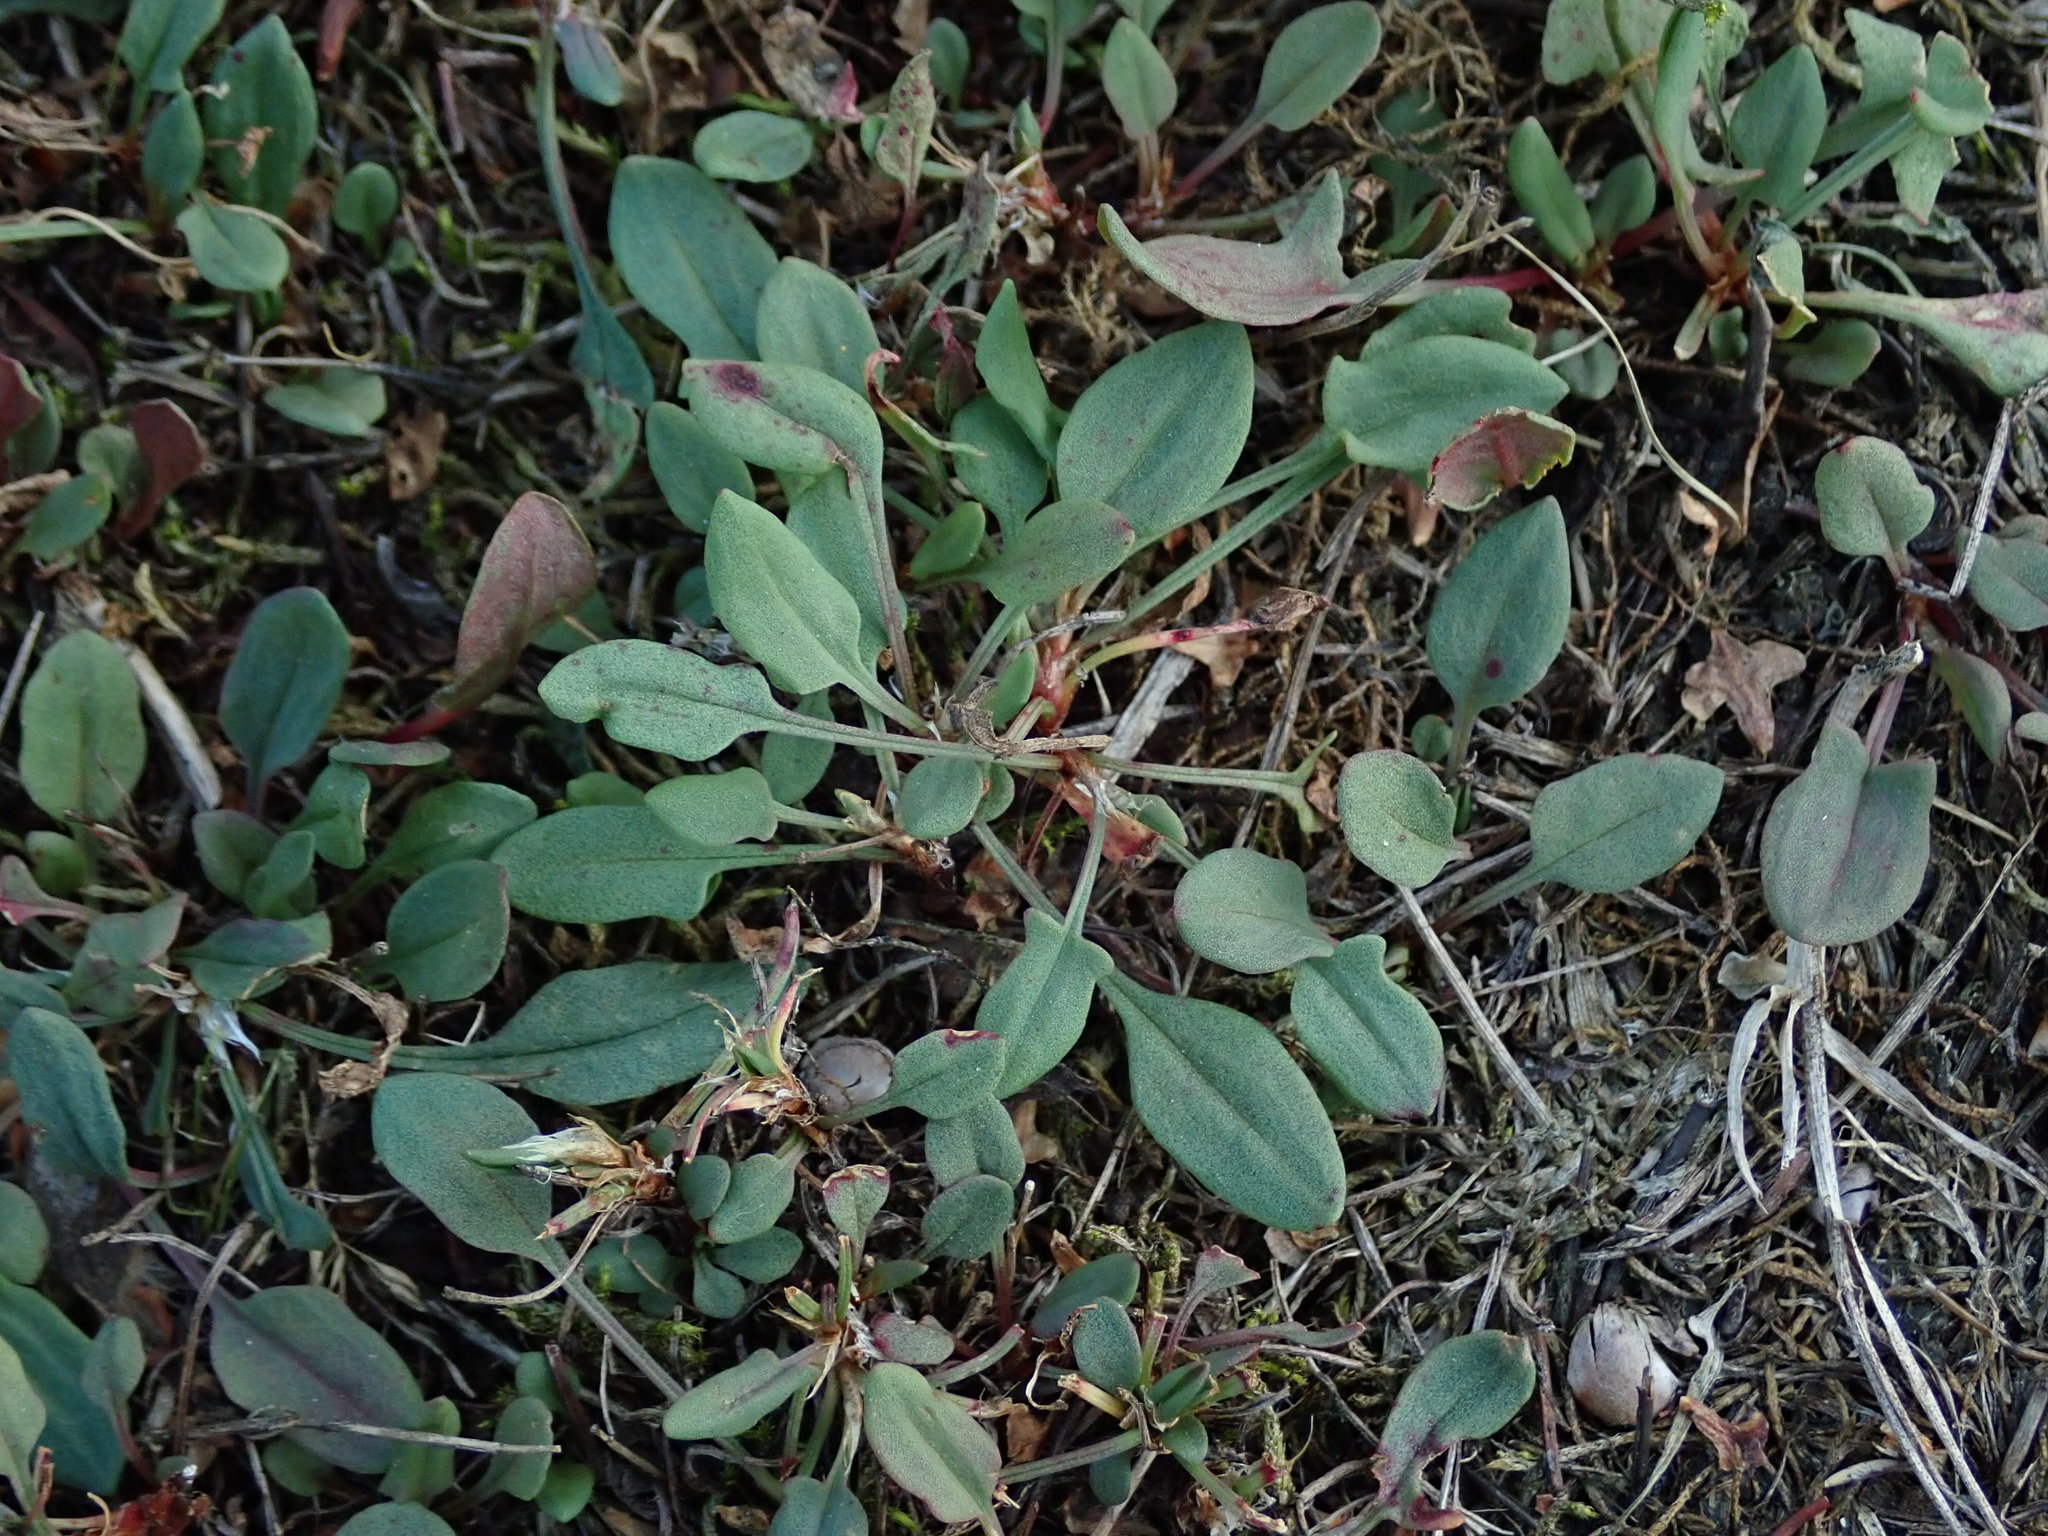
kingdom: Plantae
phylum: Tracheophyta
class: Magnoliopsida
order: Caryophyllales
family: Polygonaceae
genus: Rumex
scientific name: Rumex acetosella
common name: Common sheep sorrel
